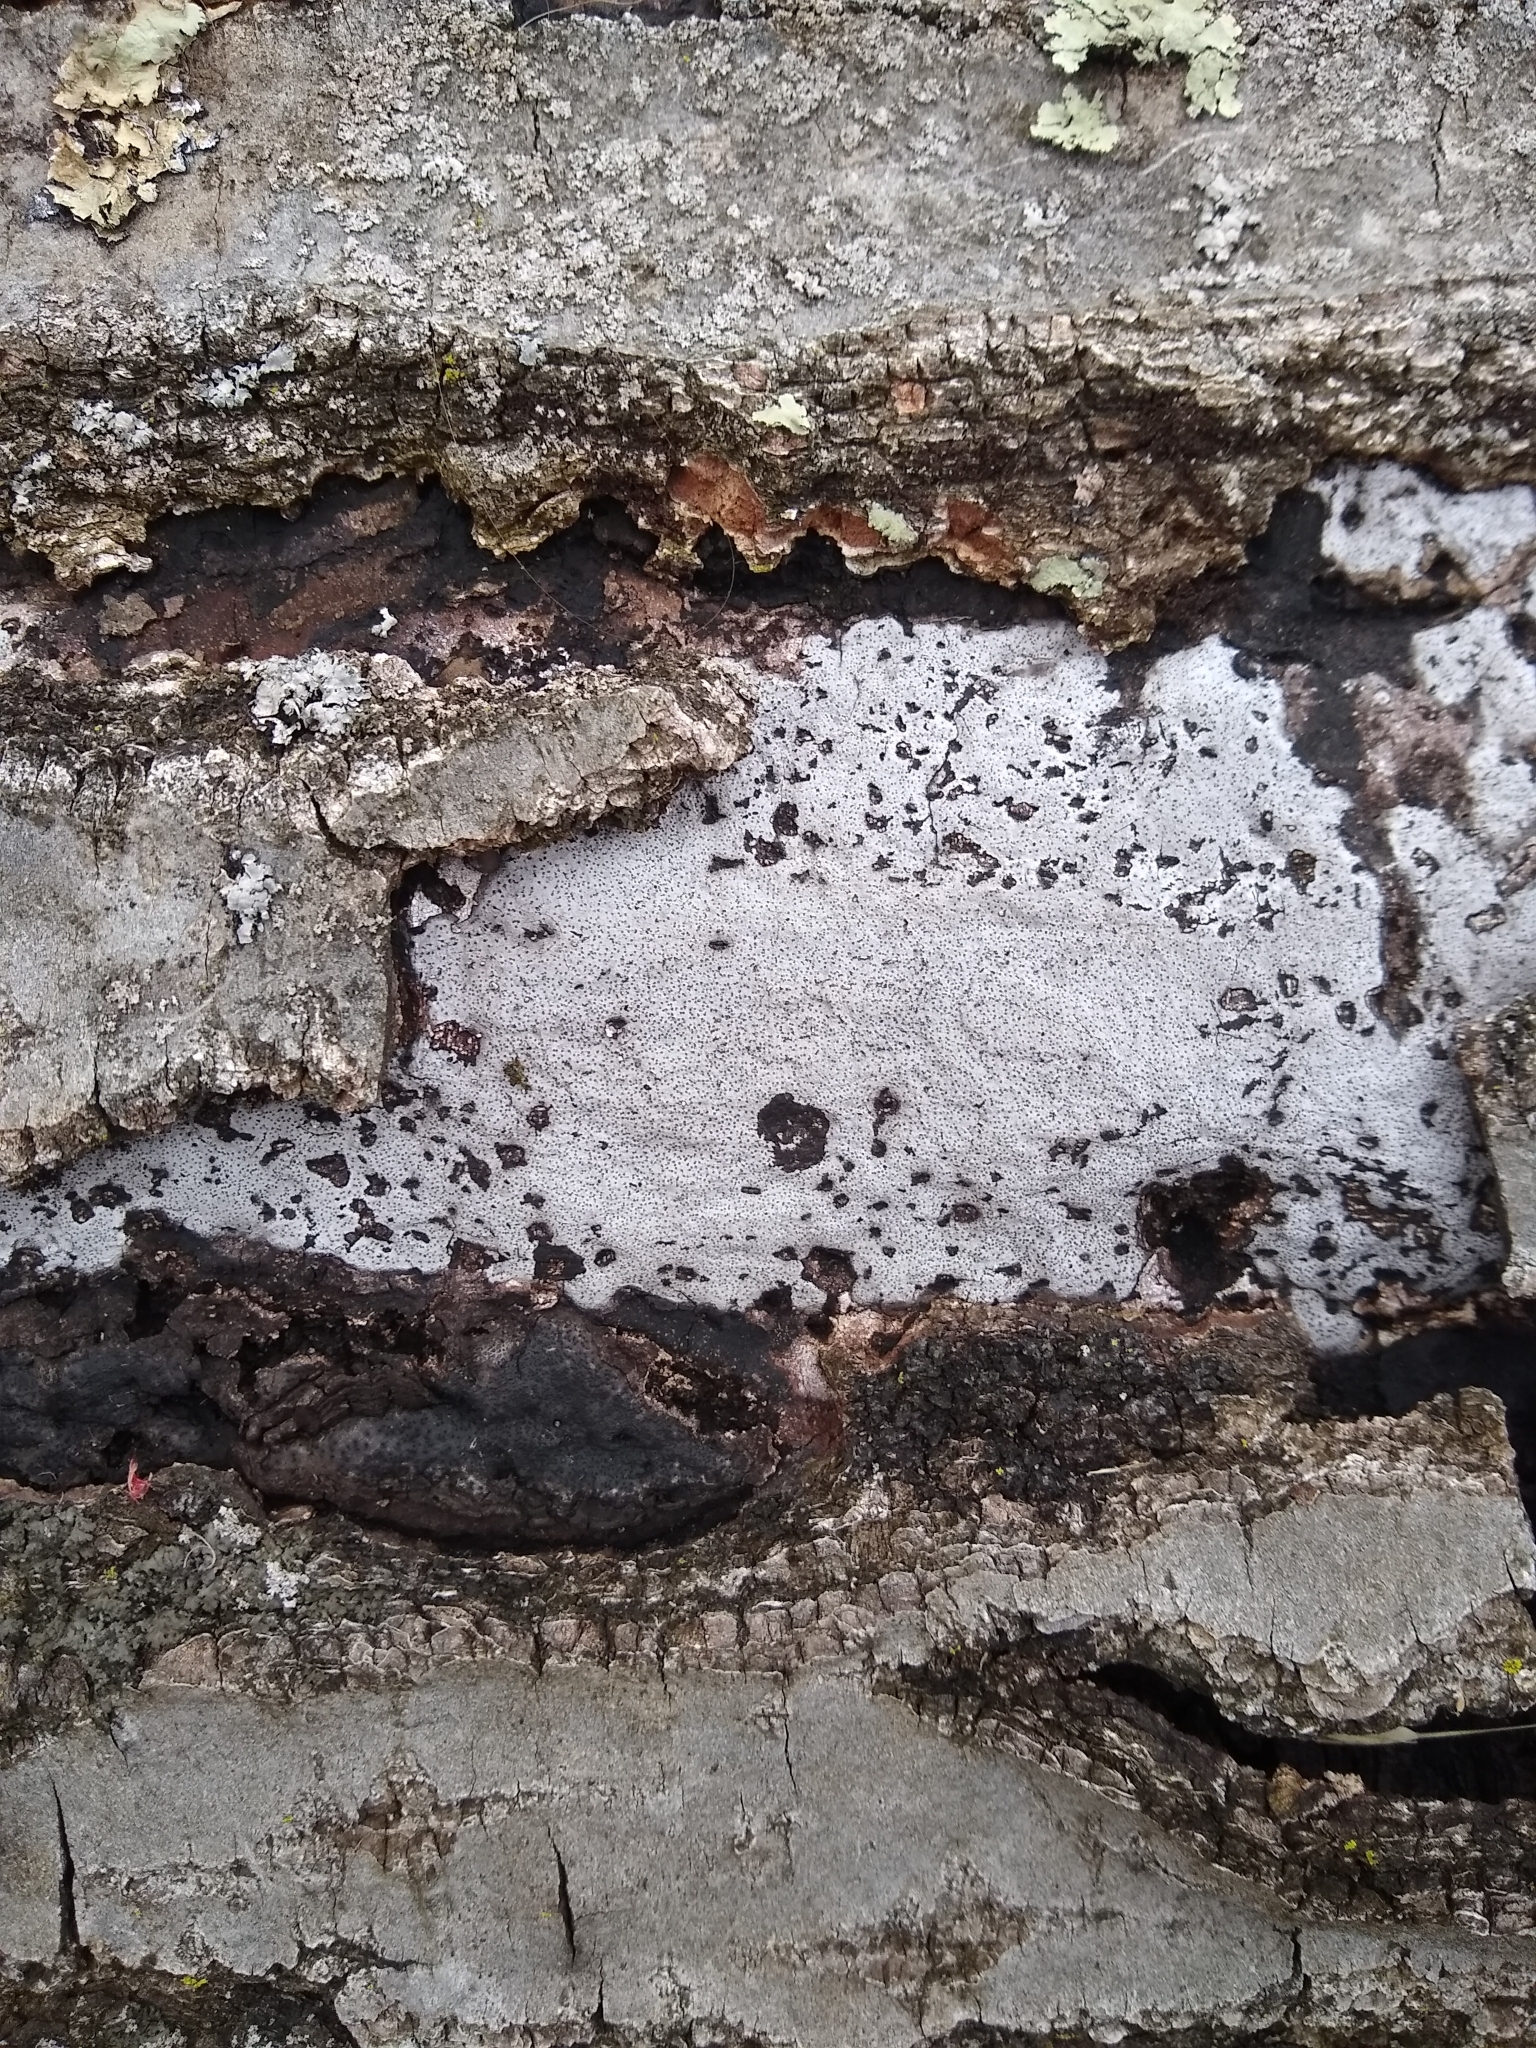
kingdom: Fungi
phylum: Ascomycota
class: Sordariomycetes
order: Xylariales
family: Graphostromataceae
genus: Biscogniauxia
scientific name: Biscogniauxia atropunctata
